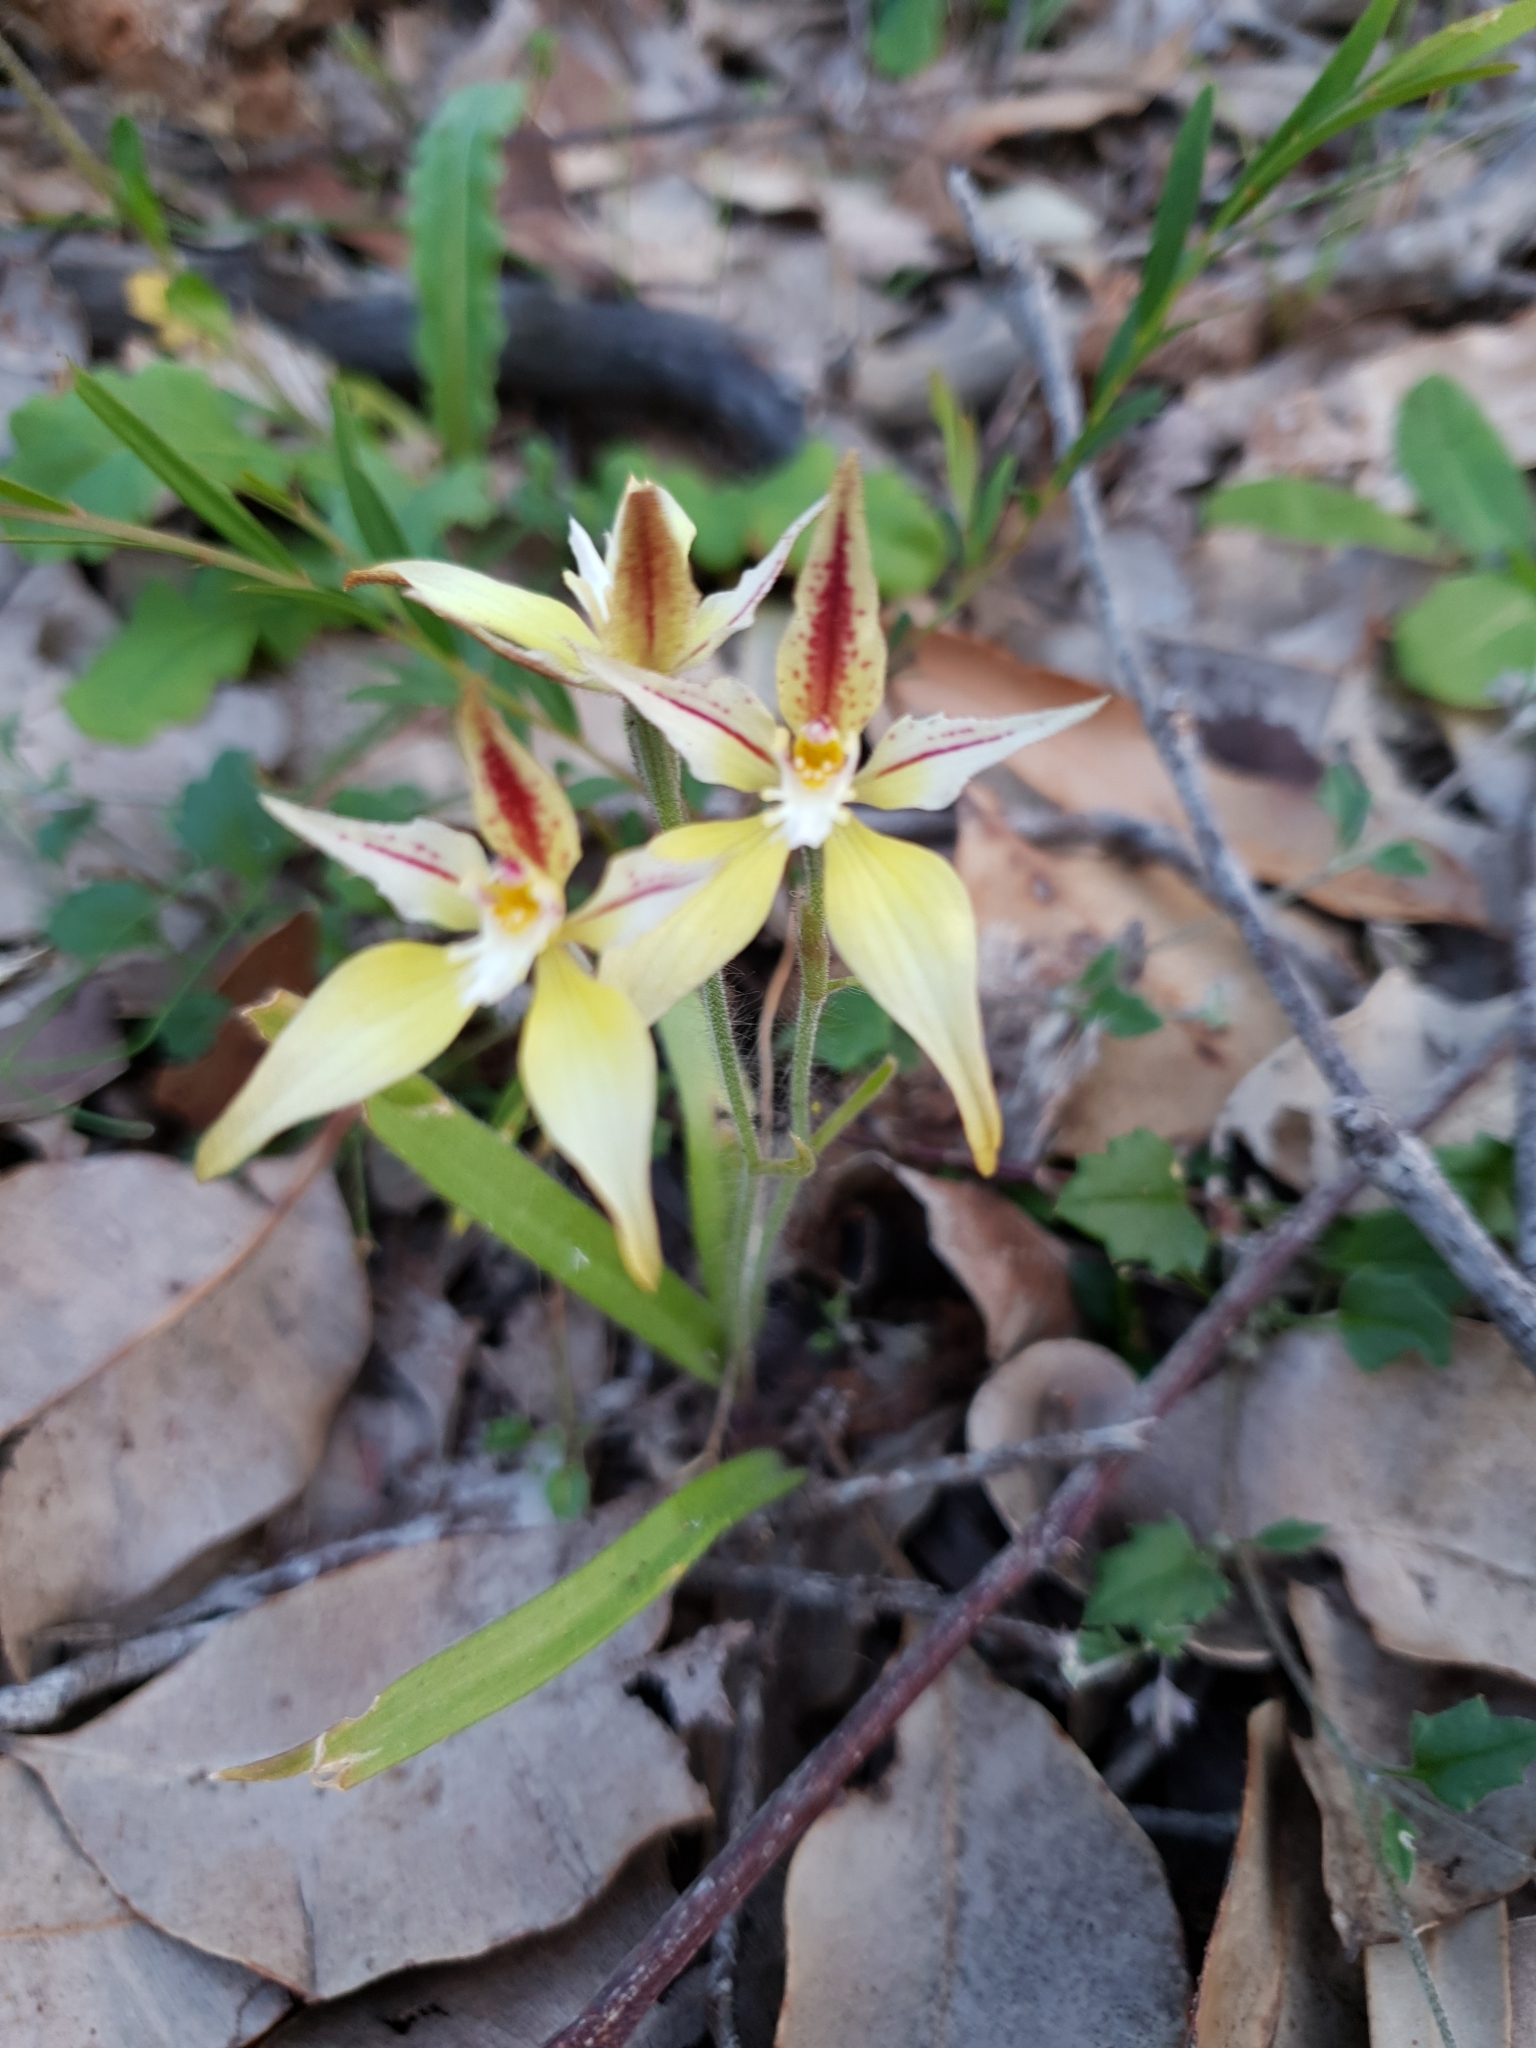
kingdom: Plantae
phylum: Tracheophyta
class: Liliopsida
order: Asparagales
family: Orchidaceae
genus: Caladenia
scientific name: Caladenia flava
